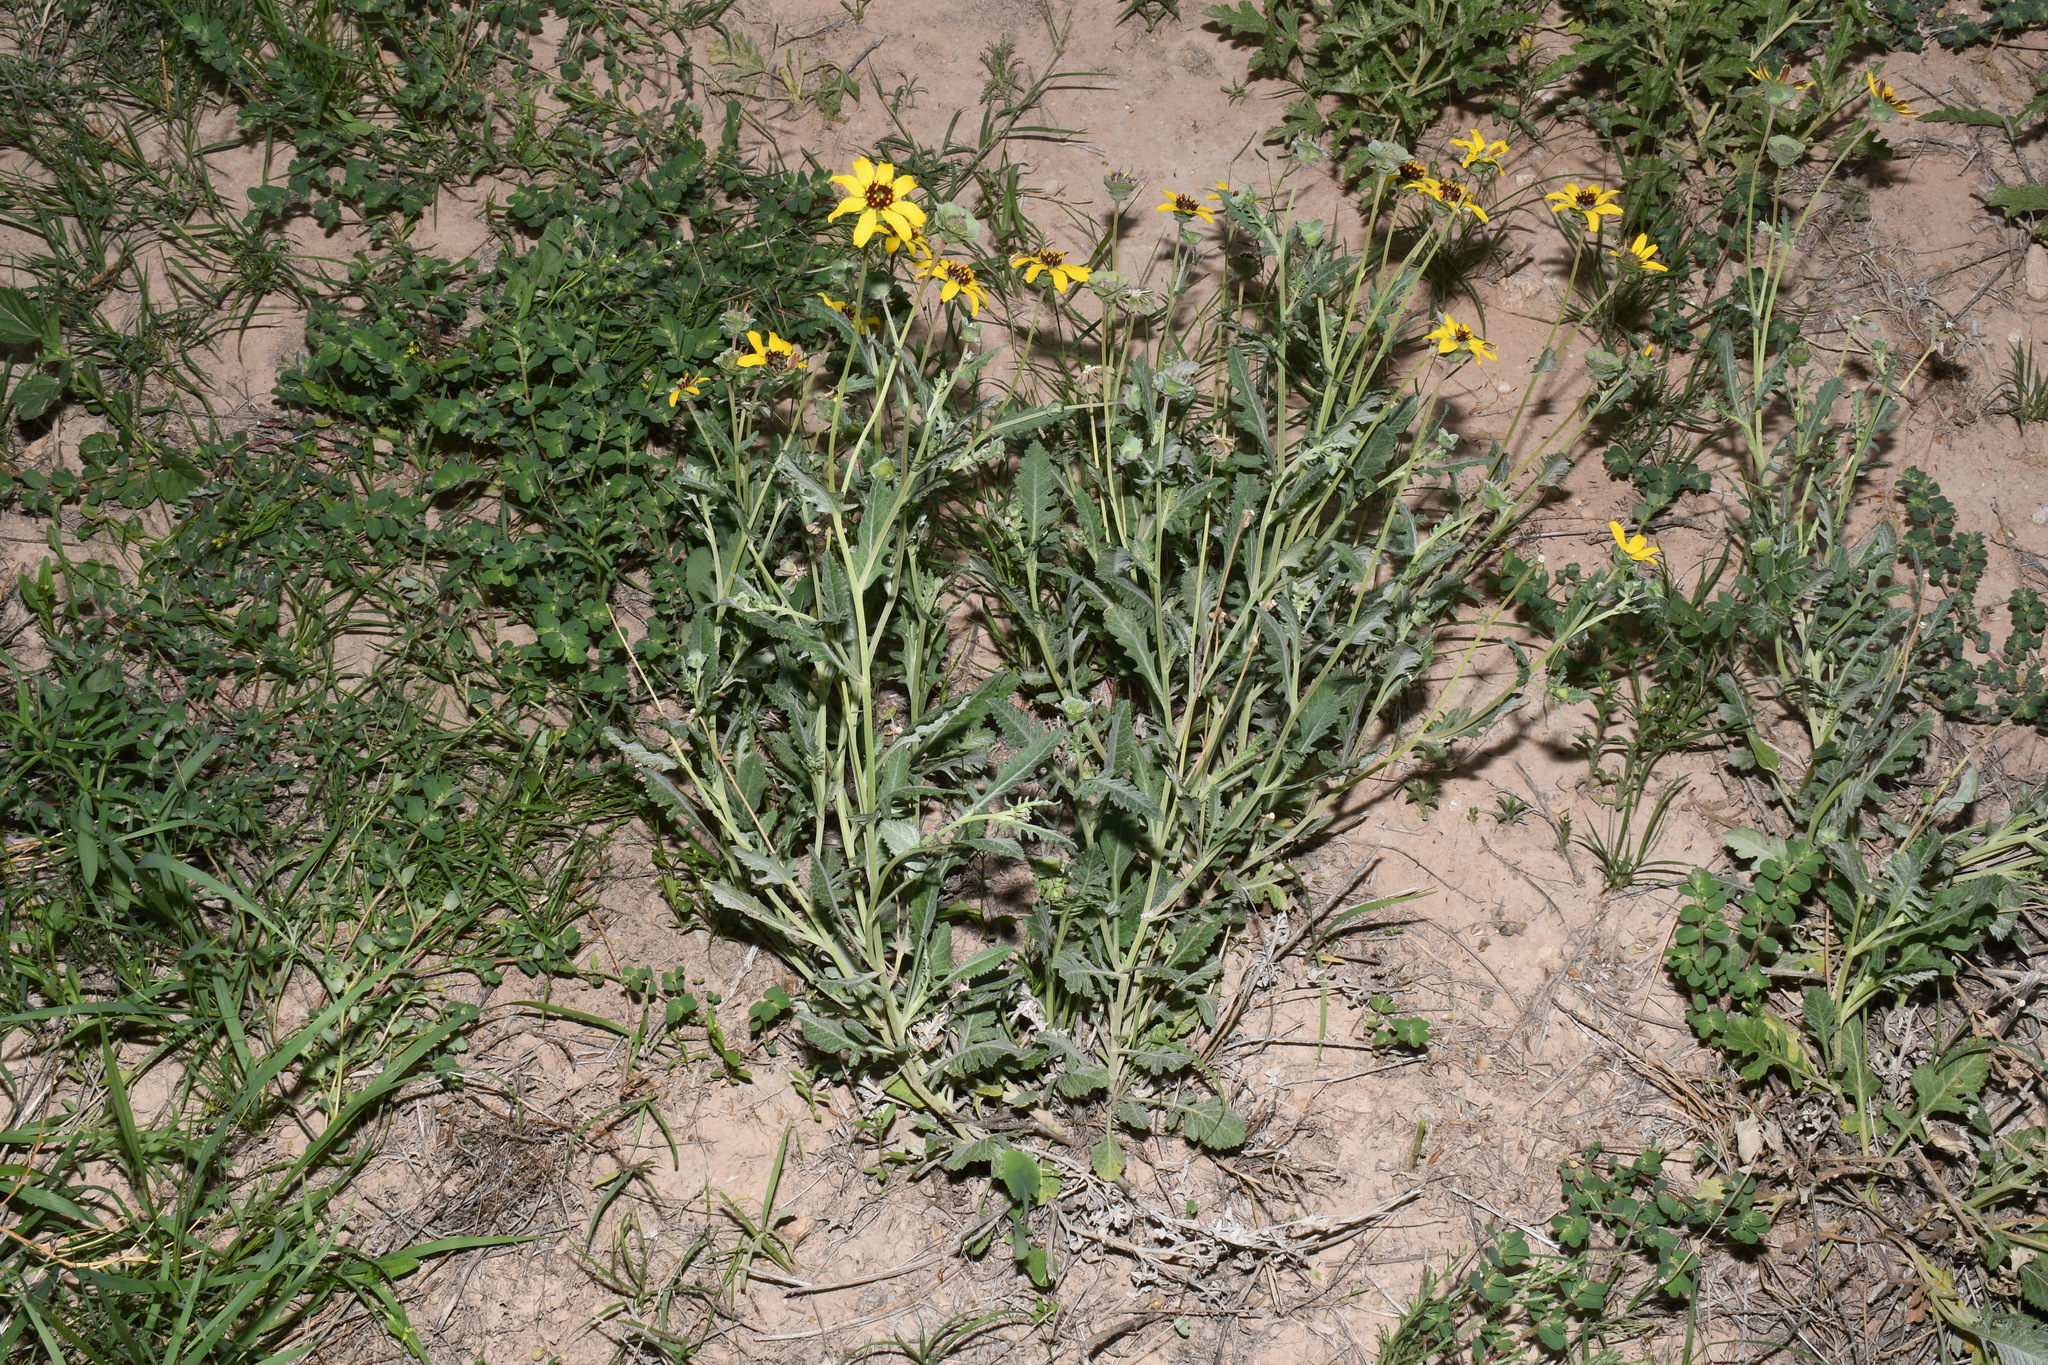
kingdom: Plantae
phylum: Tracheophyta
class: Magnoliopsida
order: Asterales
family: Asteraceae
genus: Berlandiera
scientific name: Berlandiera lyrata
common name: Chocolate-flower
